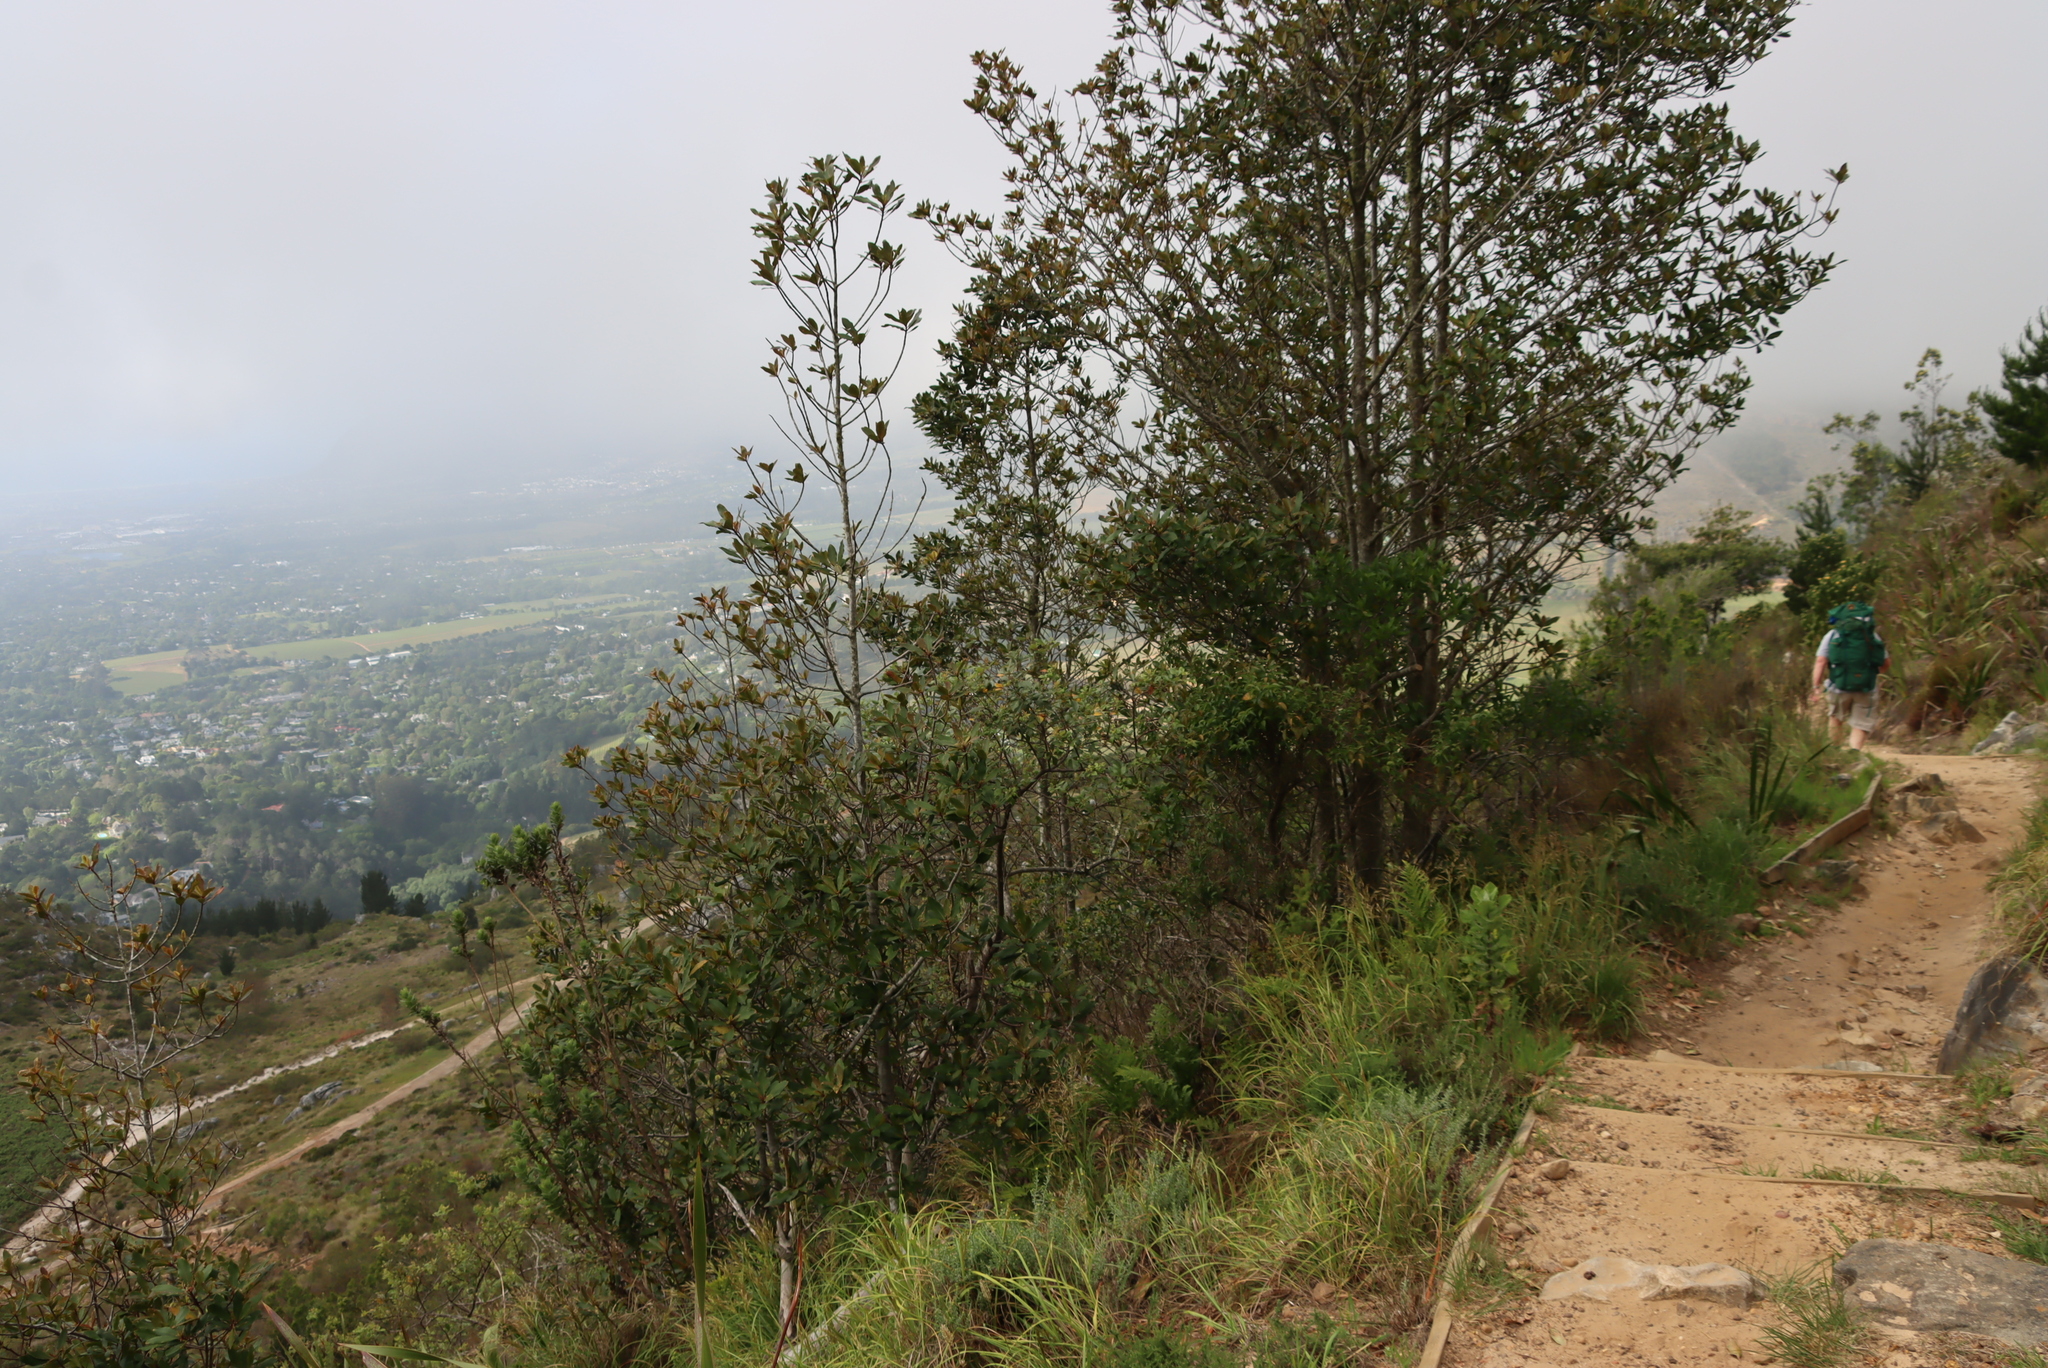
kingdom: Plantae
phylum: Tracheophyta
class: Magnoliopsida
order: Ericales
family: Primulaceae
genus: Myrsine
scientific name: Myrsine melanophloeos
